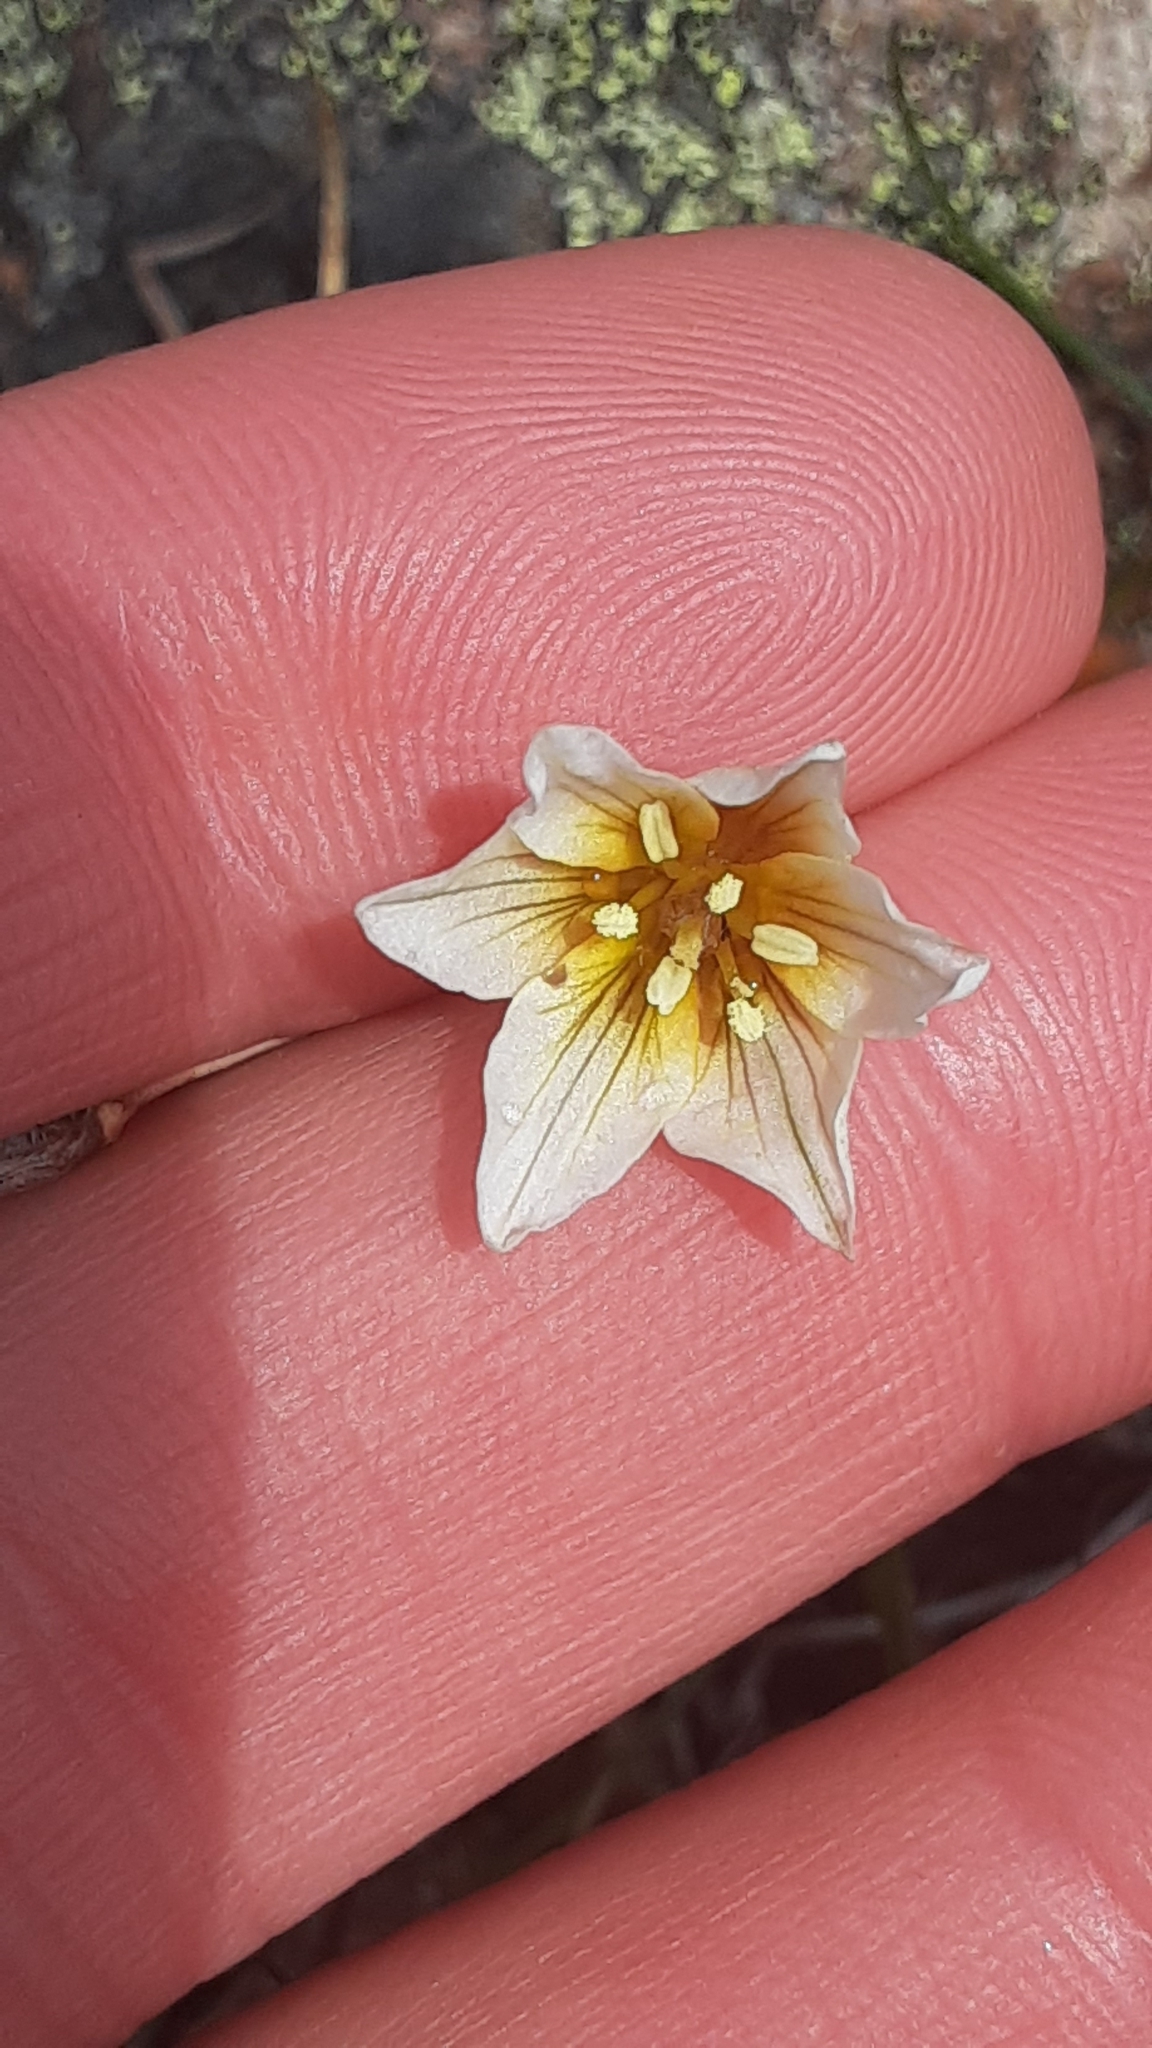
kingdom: Plantae
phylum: Tracheophyta
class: Liliopsida
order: Liliales
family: Liliaceae
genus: Gagea
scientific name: Gagea serotina
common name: Snowdon lily
